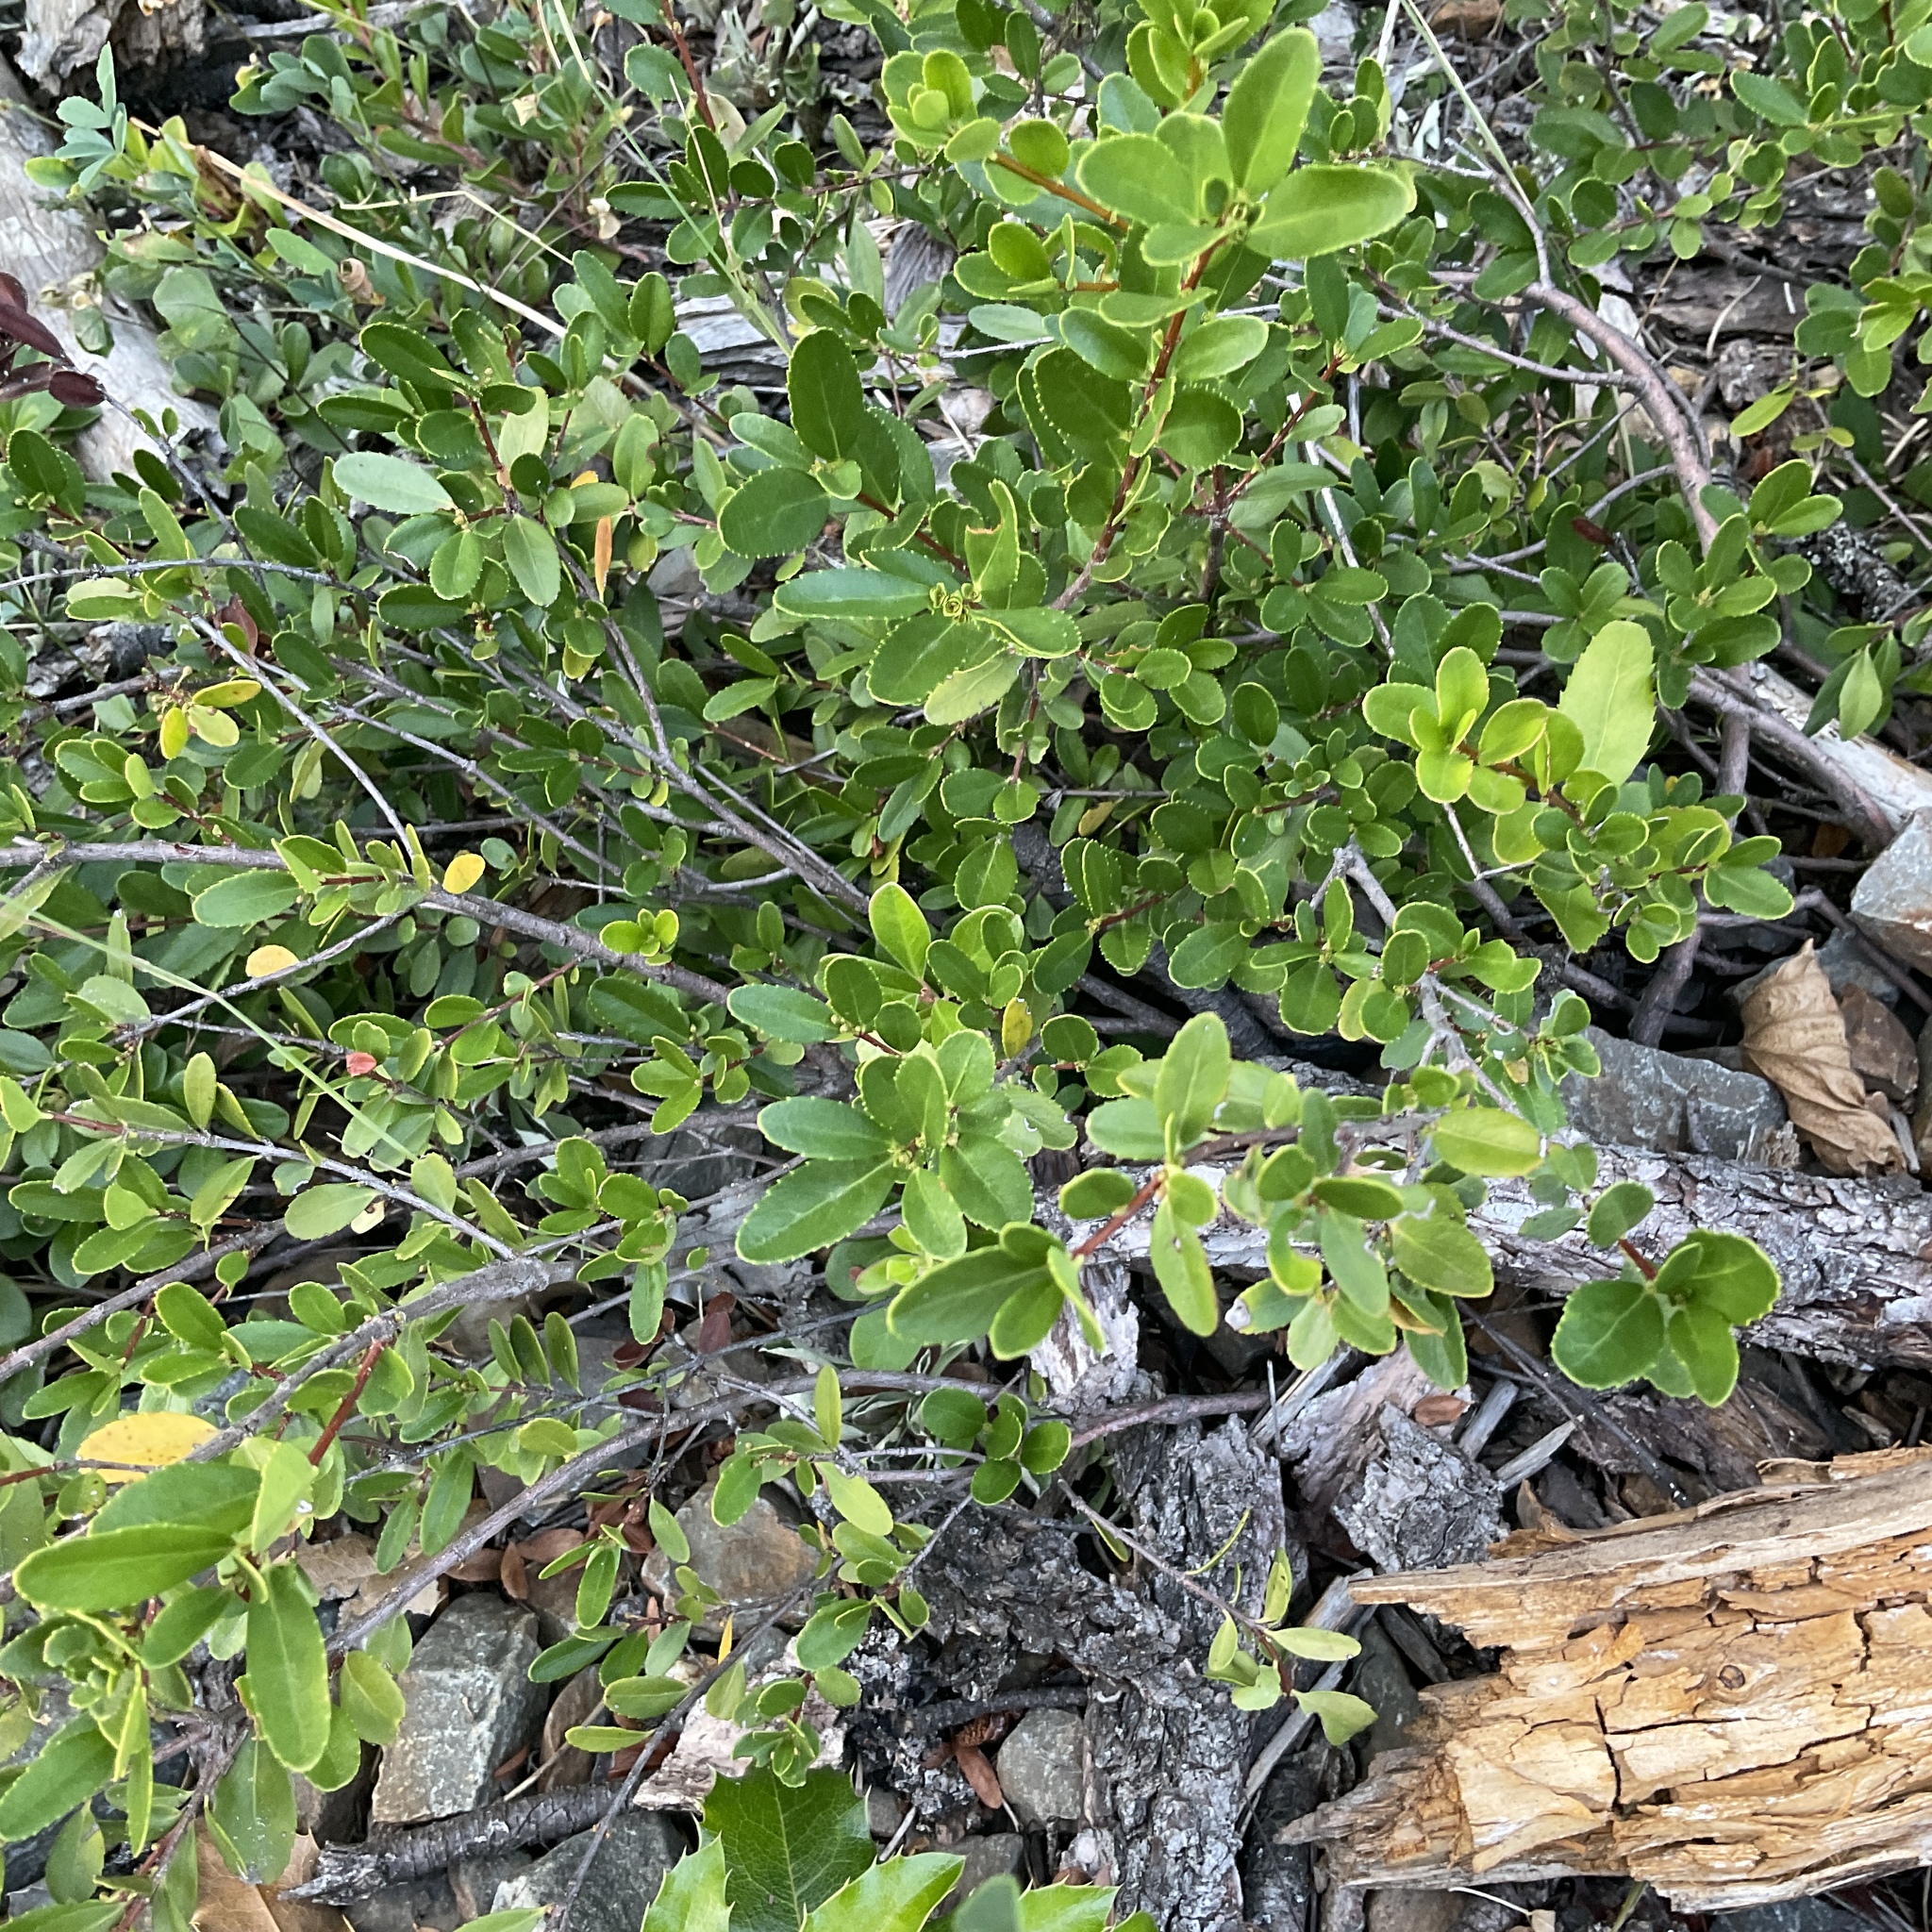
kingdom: Plantae
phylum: Tracheophyta
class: Magnoliopsida
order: Celastrales
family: Celastraceae
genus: Paxistima
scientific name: Paxistima myrsinites
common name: Mountain-lover
